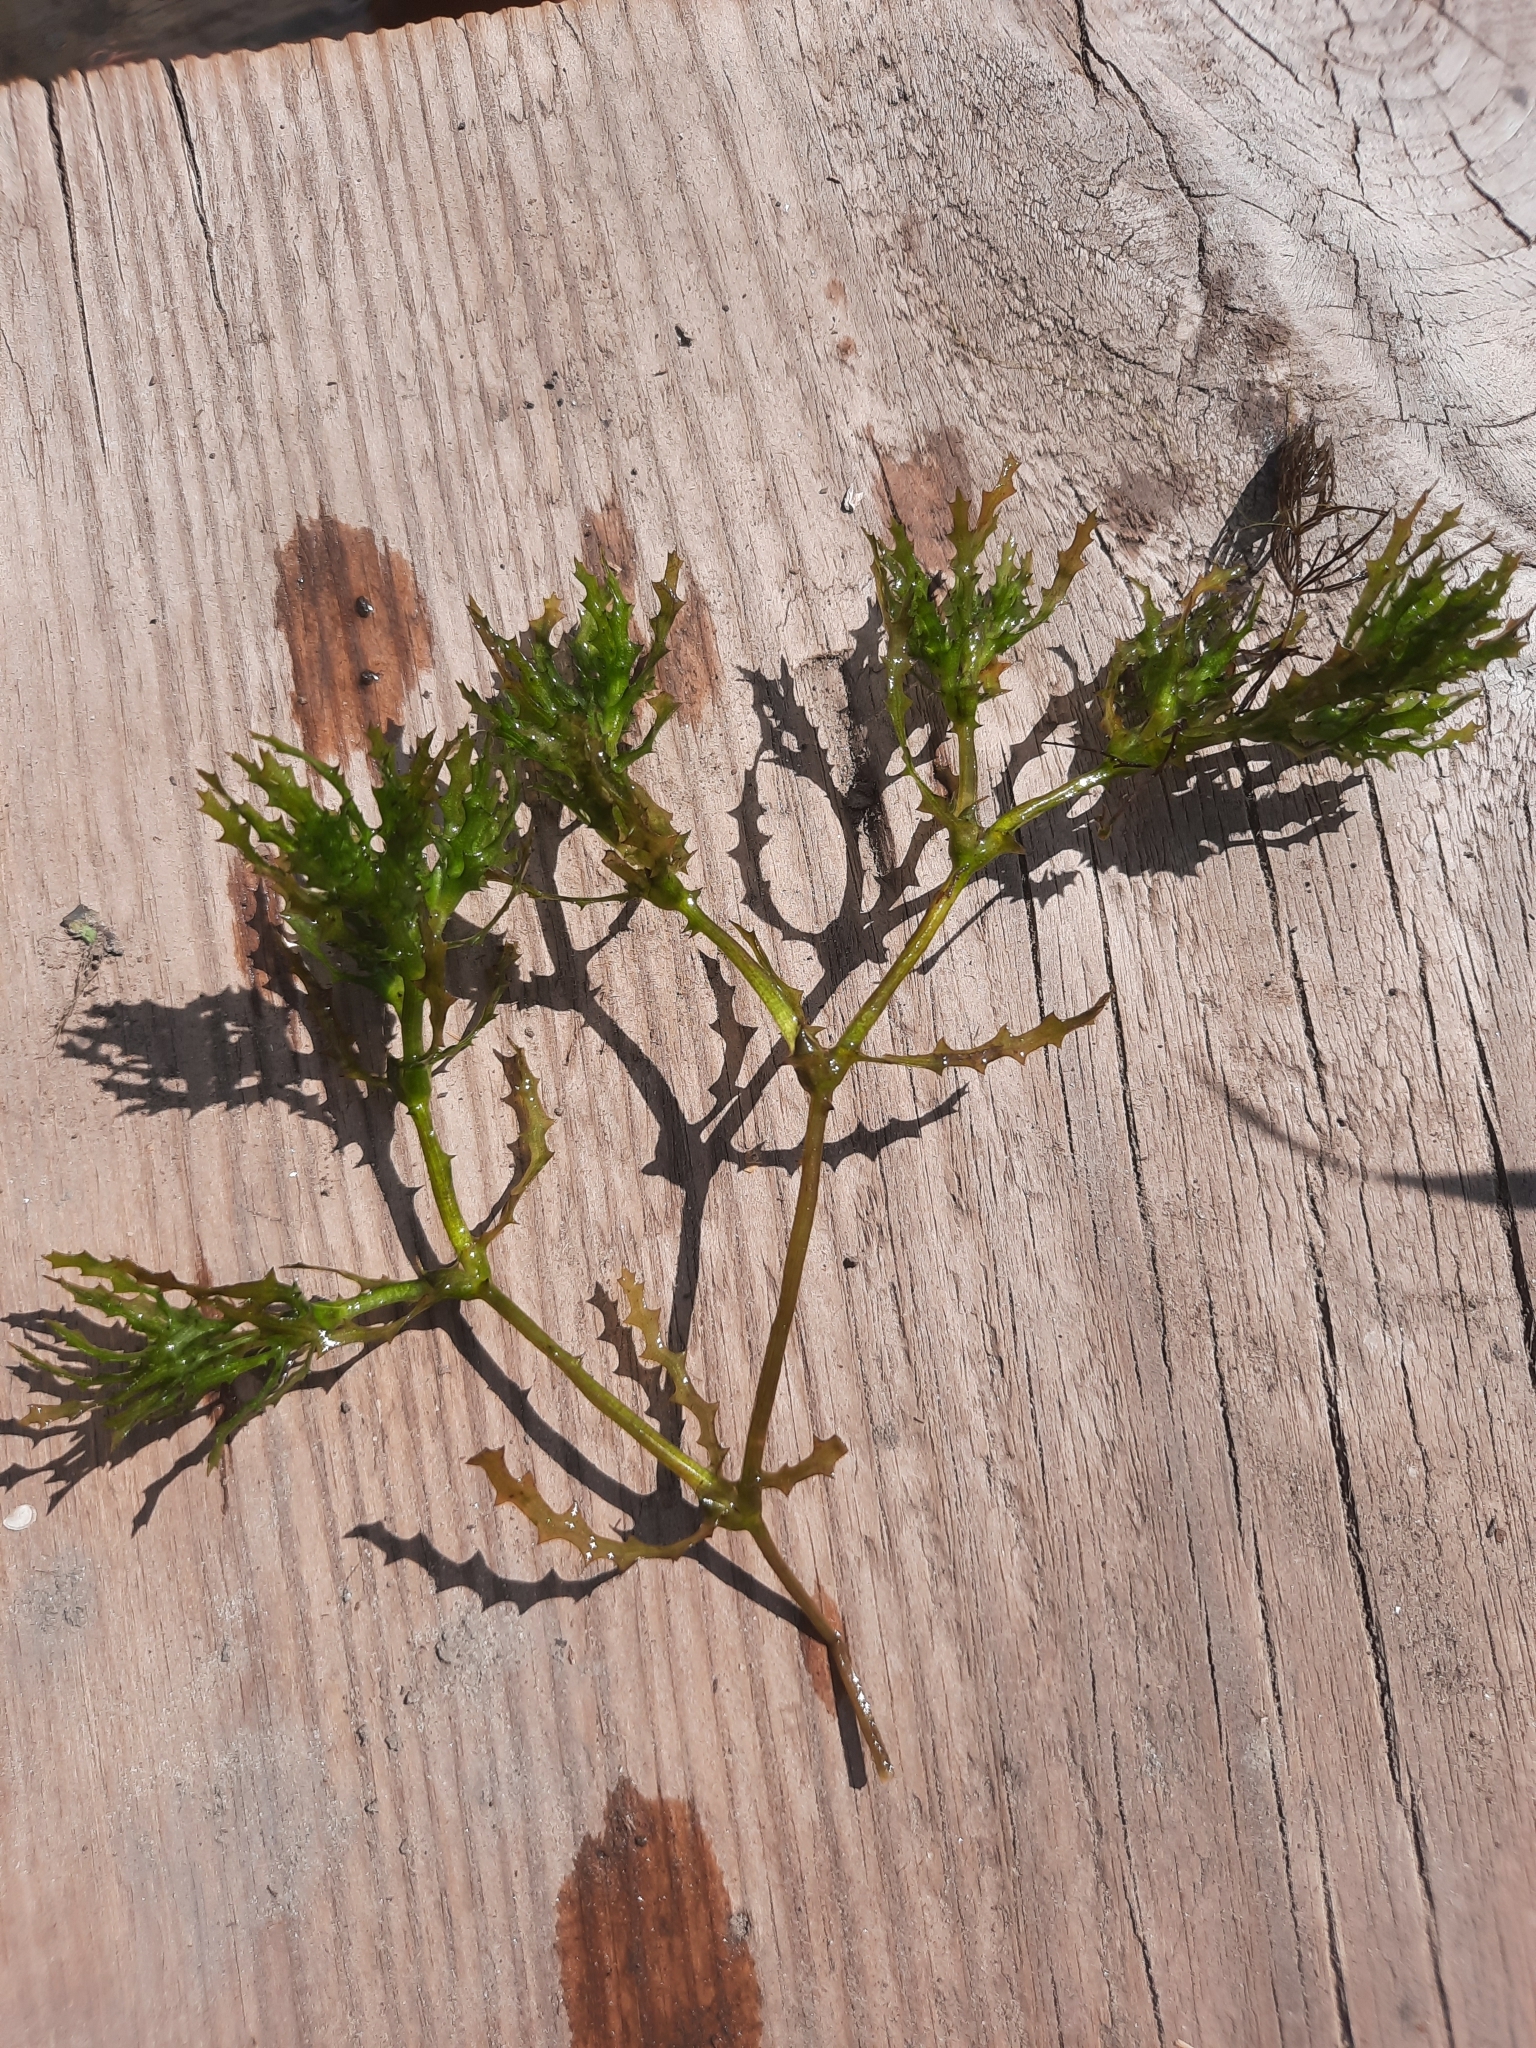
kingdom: Plantae
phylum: Tracheophyta
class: Liliopsida
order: Alismatales
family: Hydrocharitaceae
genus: Najas
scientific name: Najas marina
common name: Holly-leaved naiad
